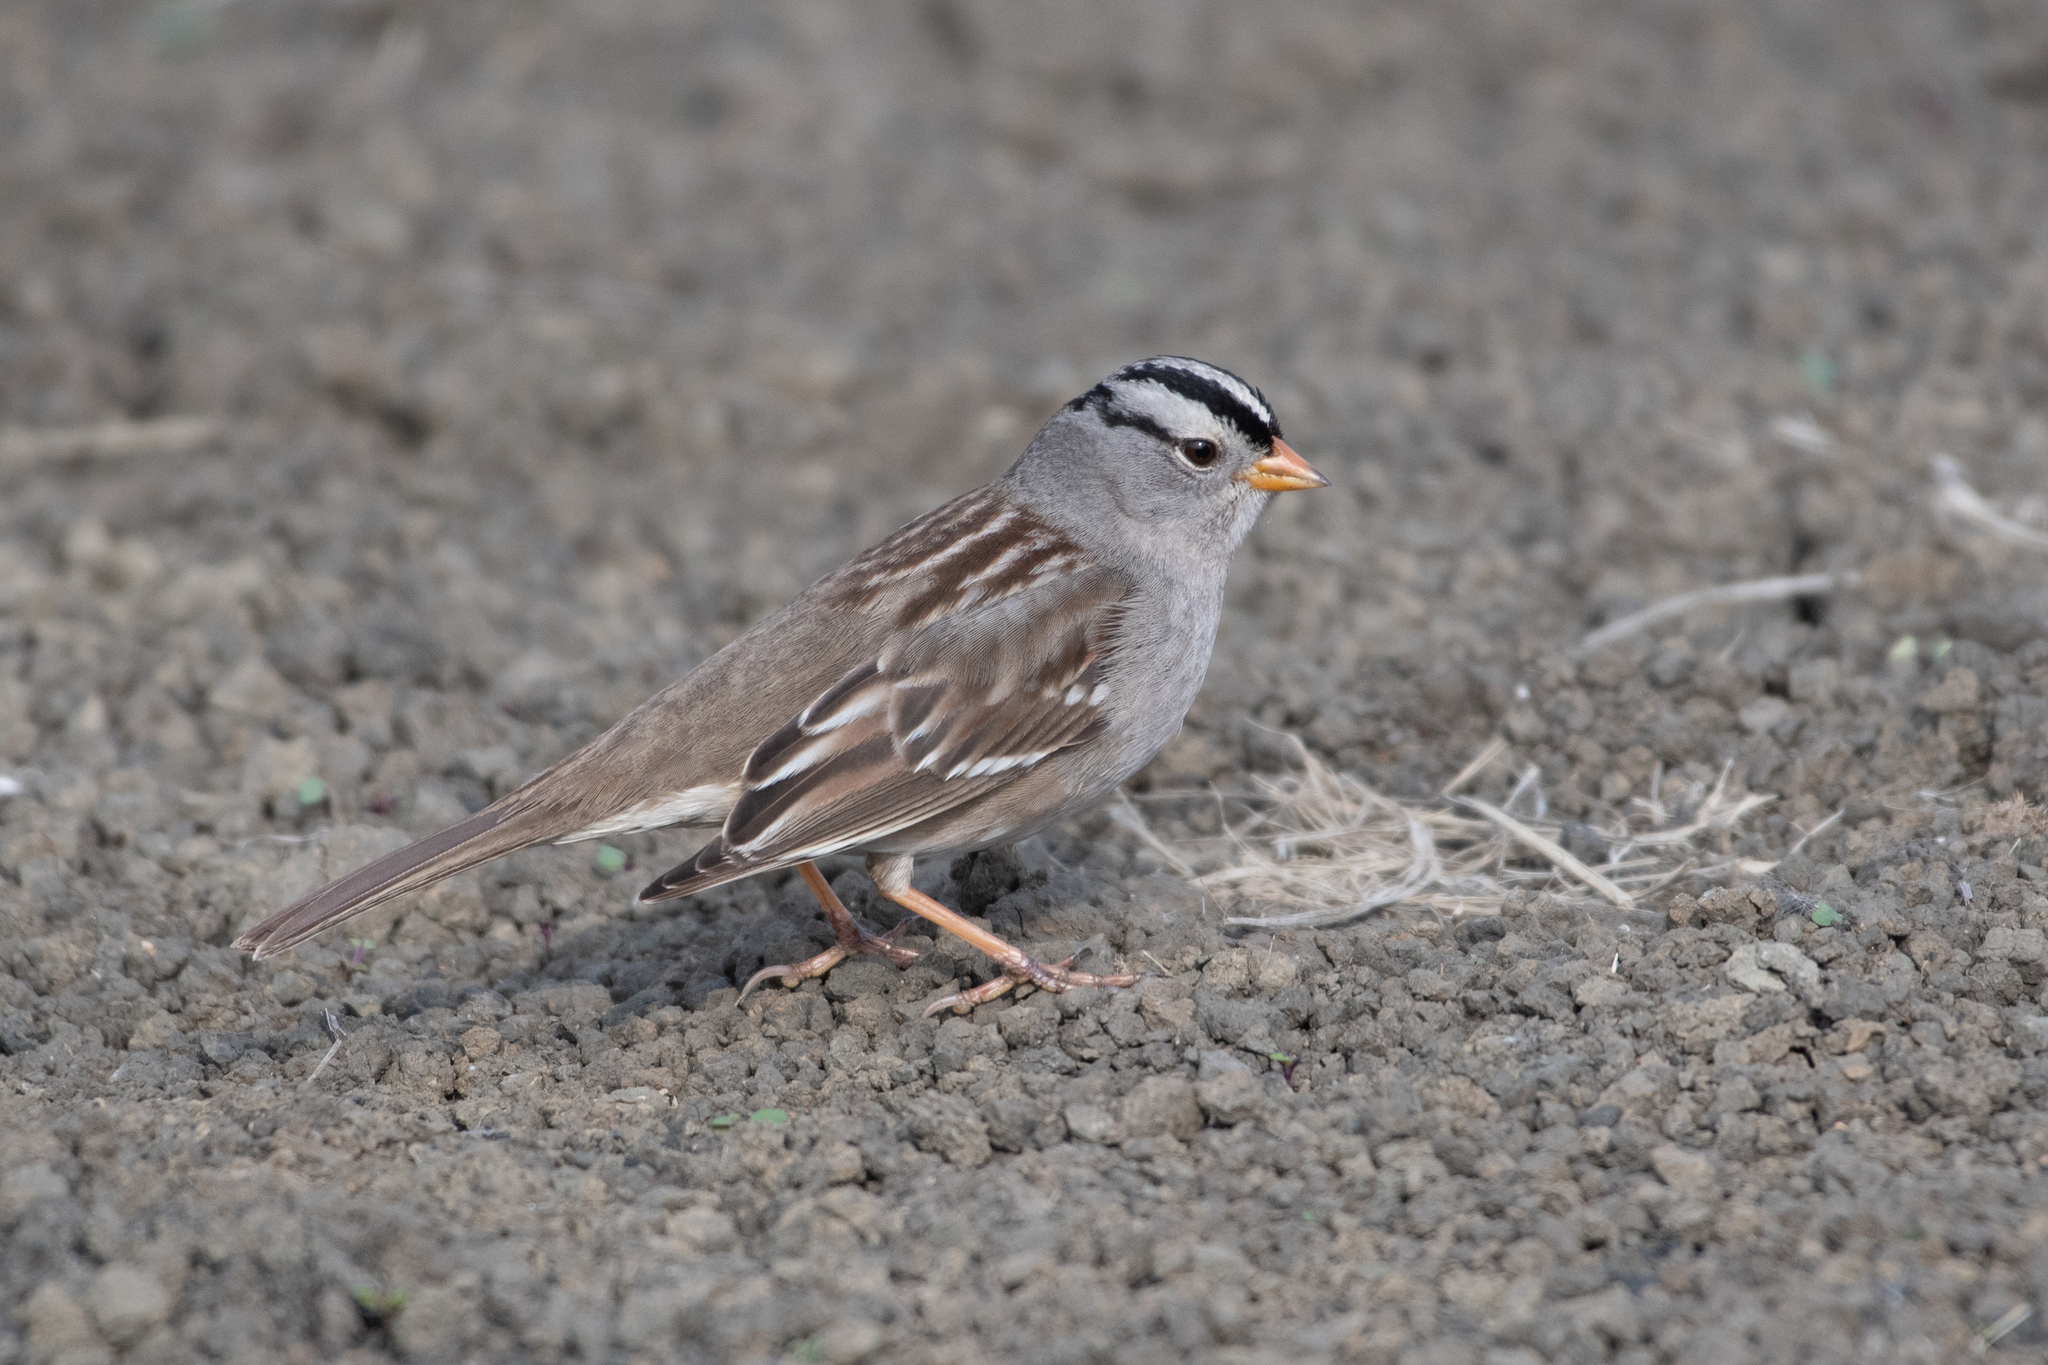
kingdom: Animalia
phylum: Chordata
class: Aves
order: Passeriformes
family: Passerellidae
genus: Zonotrichia
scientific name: Zonotrichia leucophrys
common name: White-crowned sparrow
